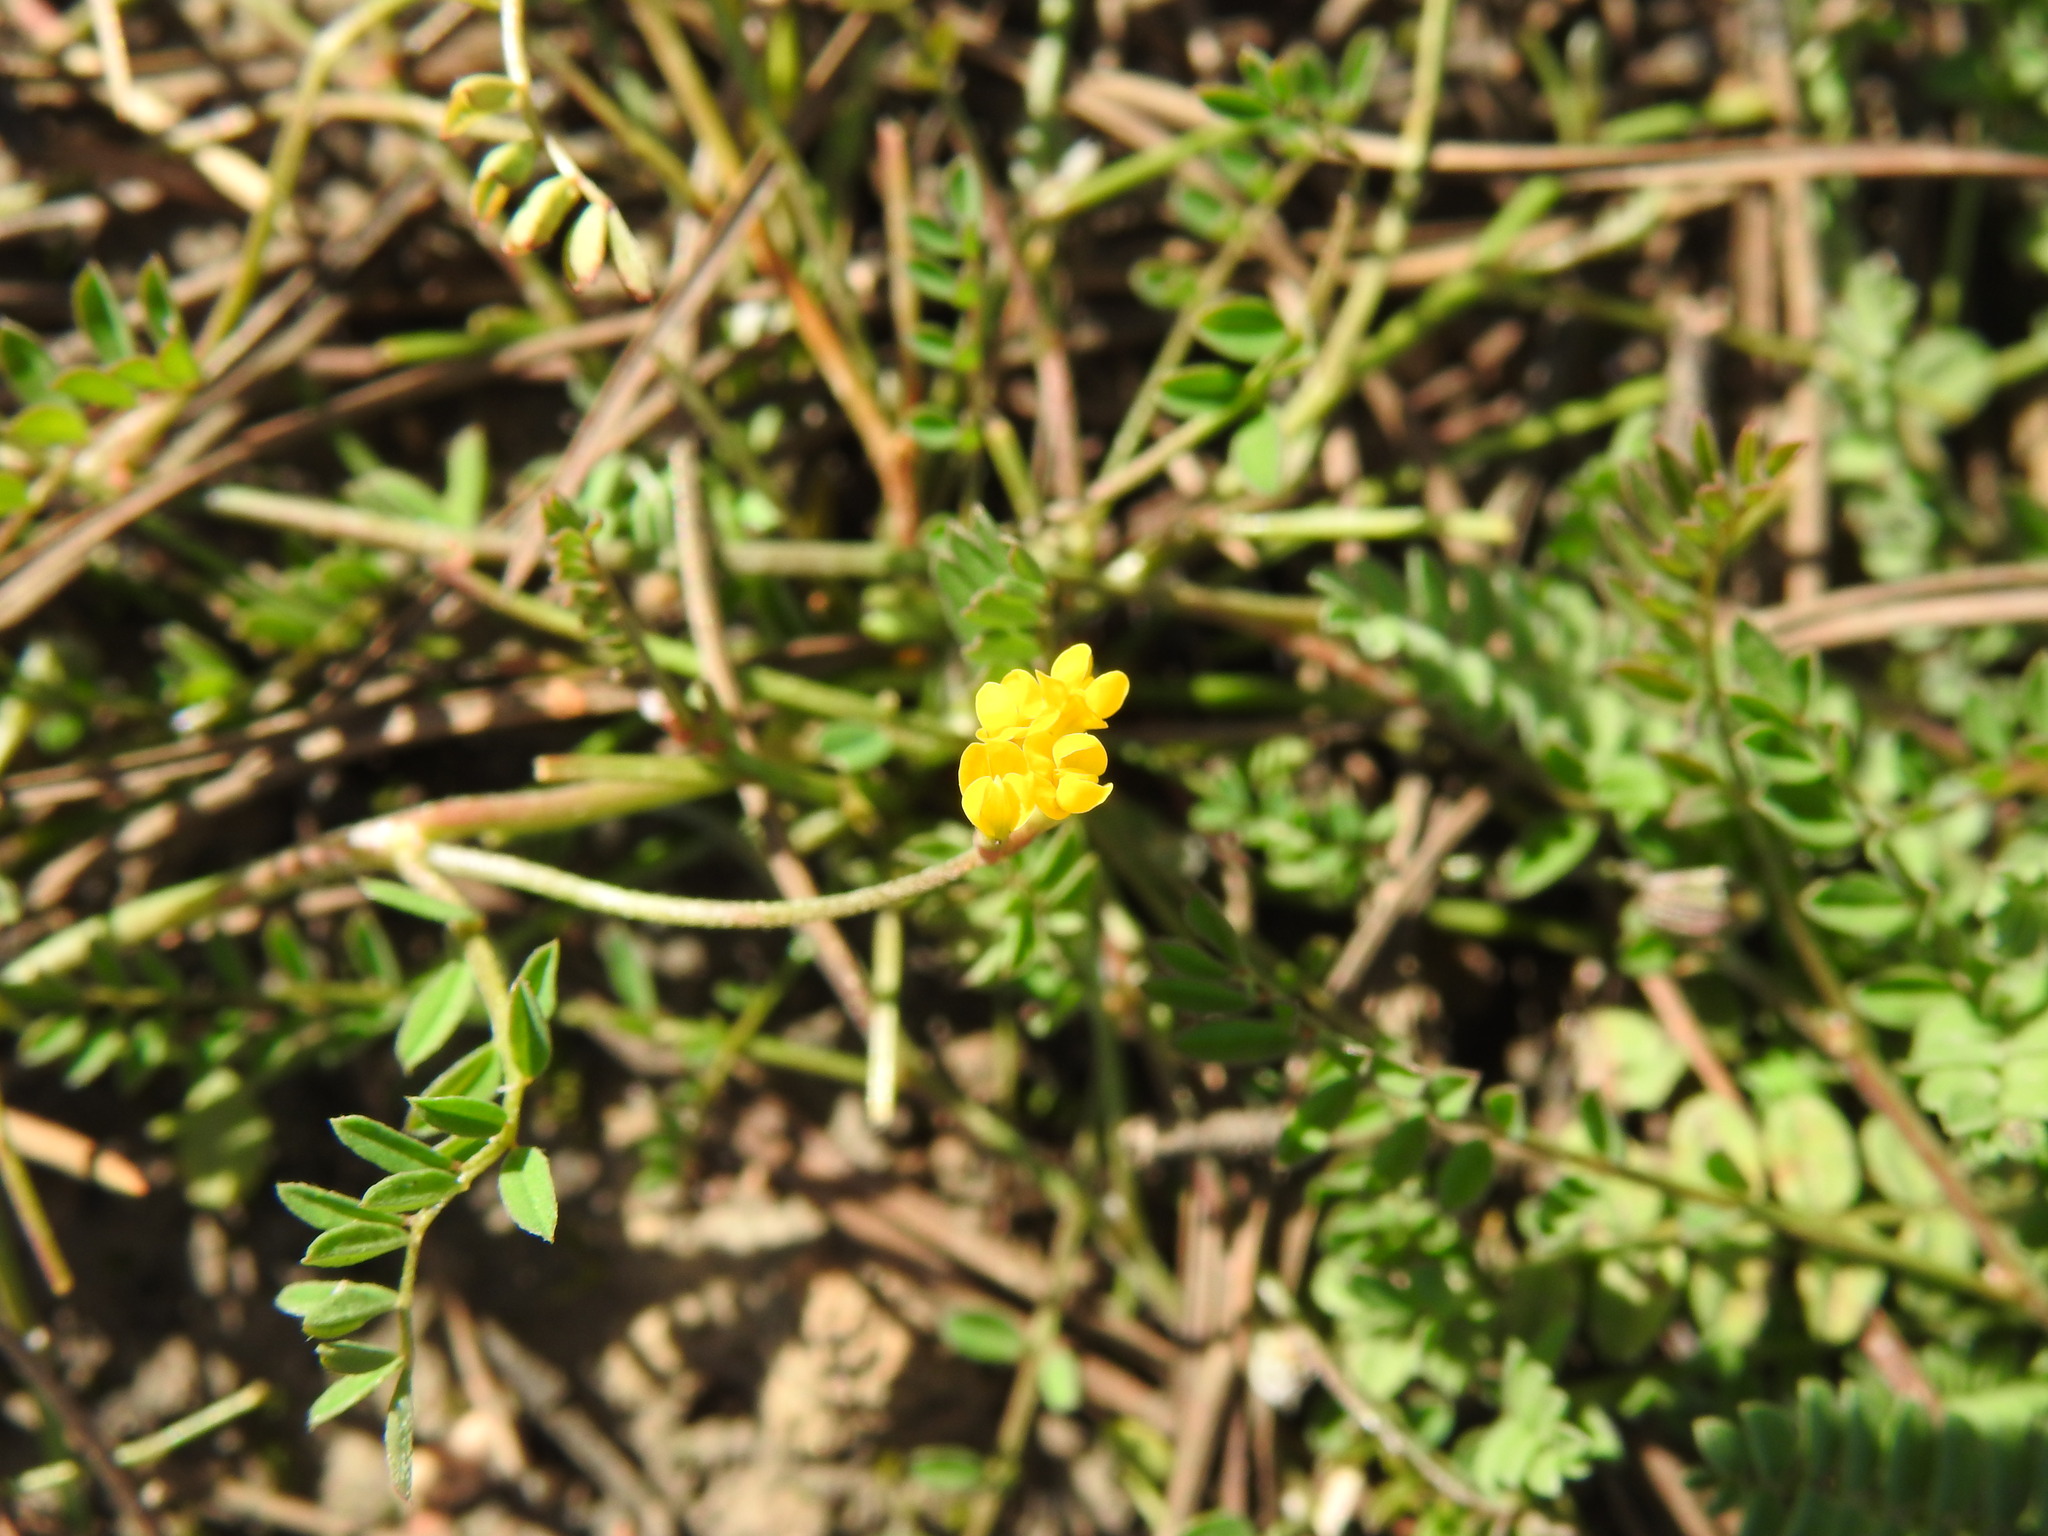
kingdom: Plantae
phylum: Tracheophyta
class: Magnoliopsida
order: Fabales
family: Fabaceae
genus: Ornithopus
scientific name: Ornithopus pinnatus
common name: Orange bird's-foot
